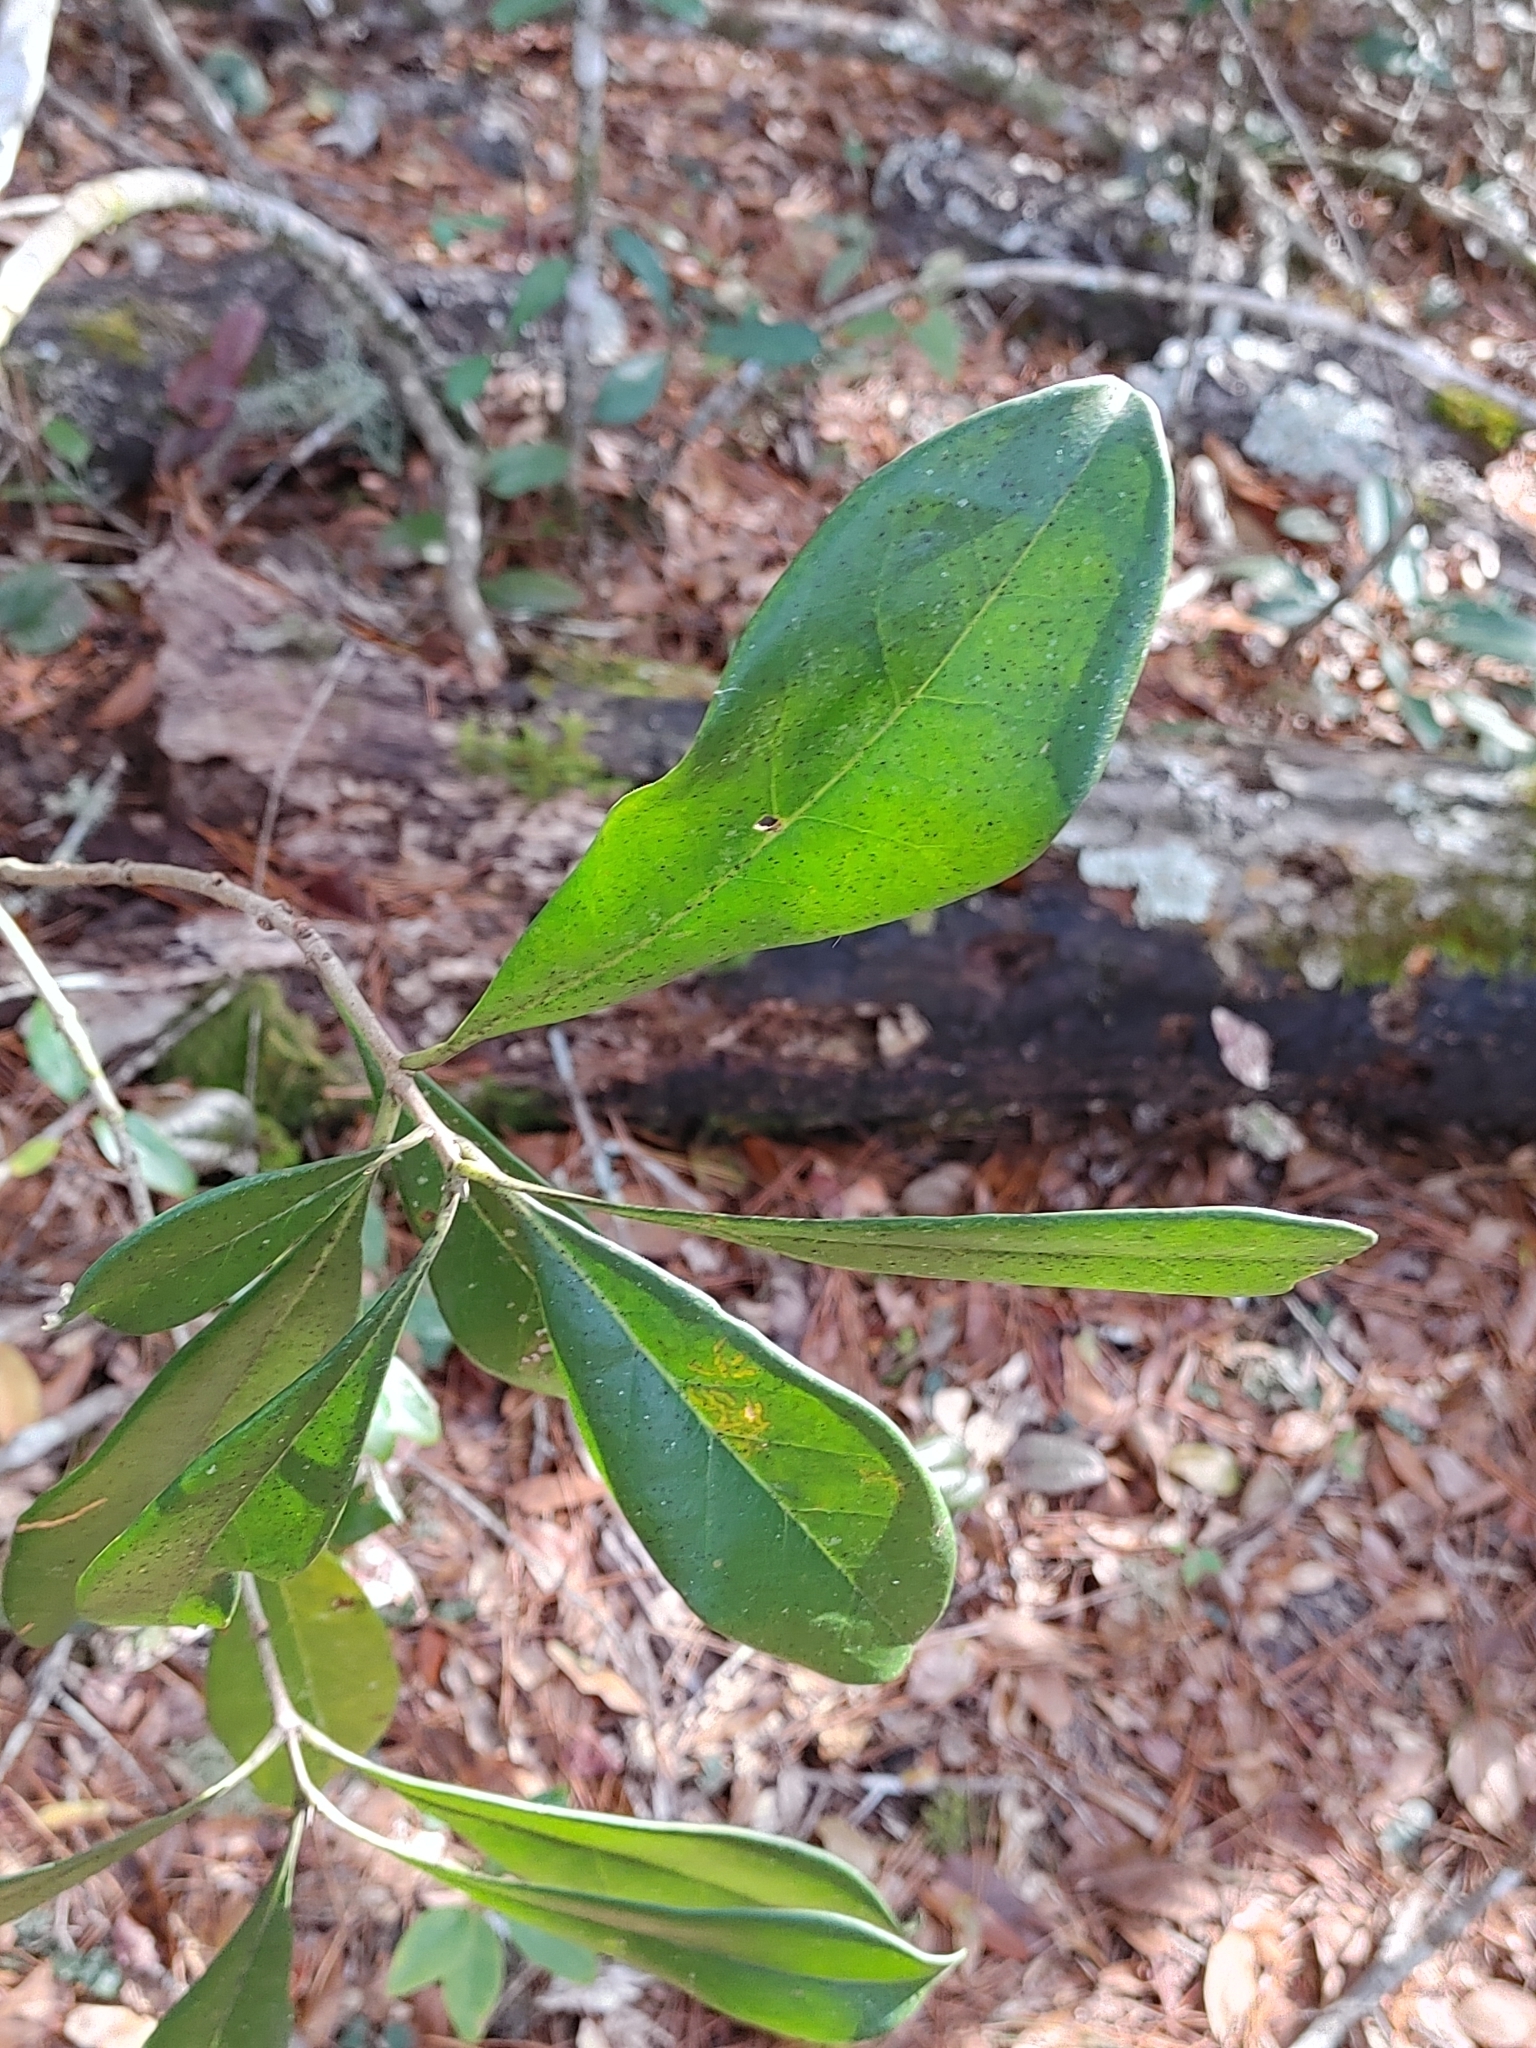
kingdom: Plantae
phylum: Tracheophyta
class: Magnoliopsida
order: Lamiales
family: Oleaceae
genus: Cartrema
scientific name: Cartrema americana
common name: Devilwood
